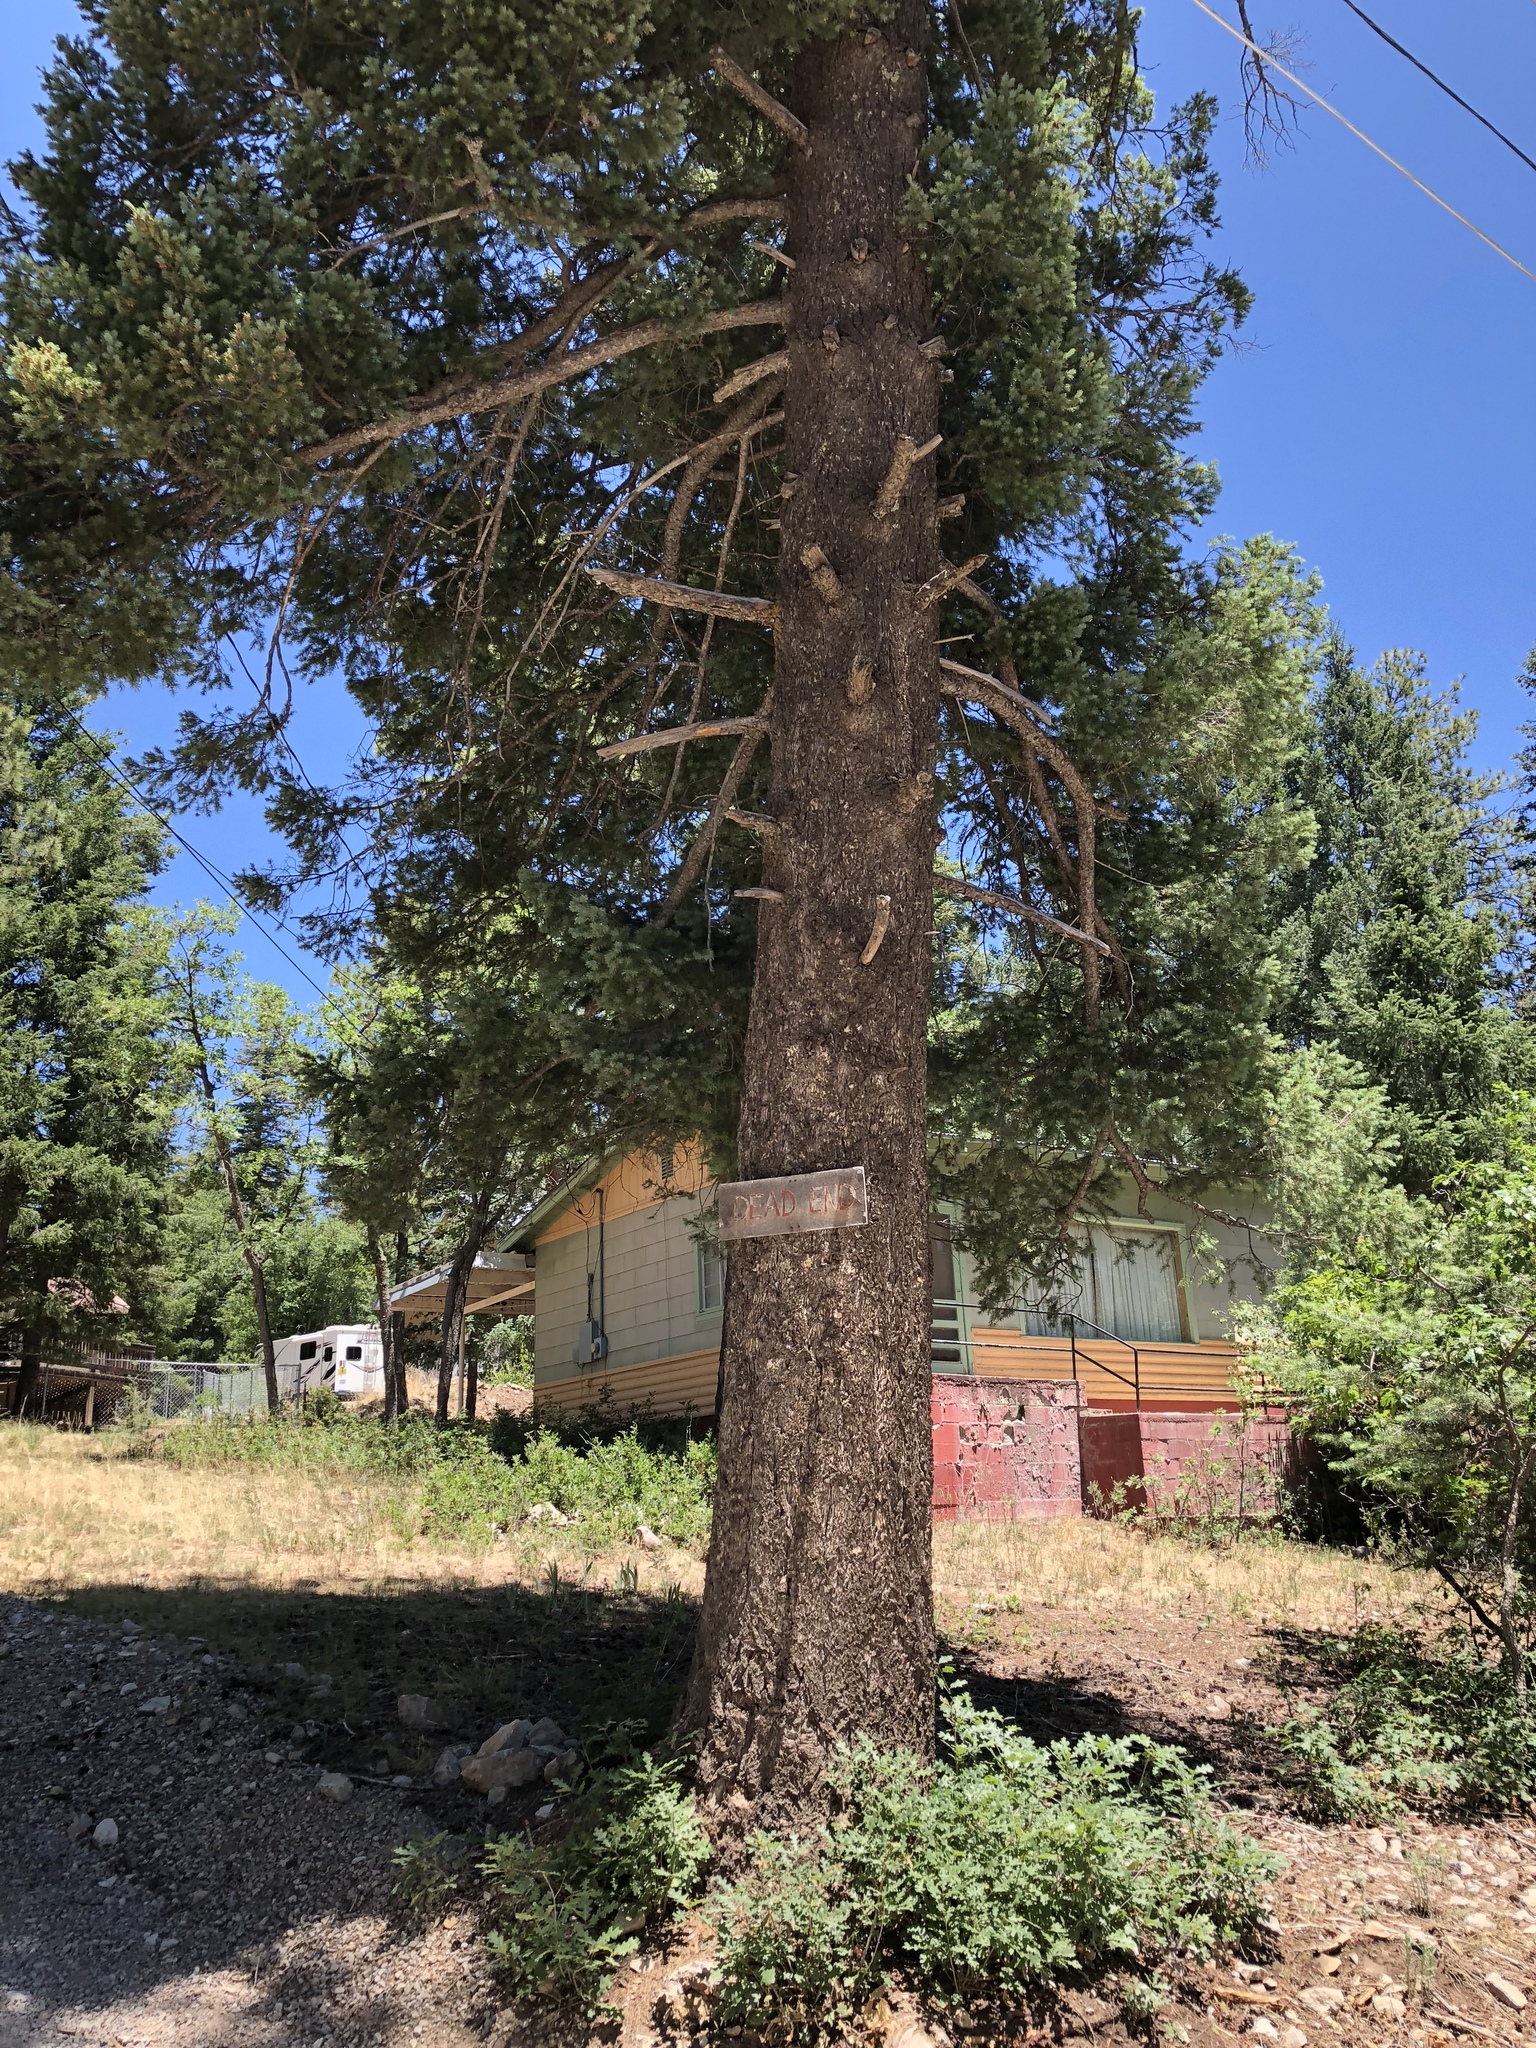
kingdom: Plantae
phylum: Tracheophyta
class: Pinopsida
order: Pinales
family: Pinaceae
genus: Pseudotsuga
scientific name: Pseudotsuga menziesii
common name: Douglas fir
